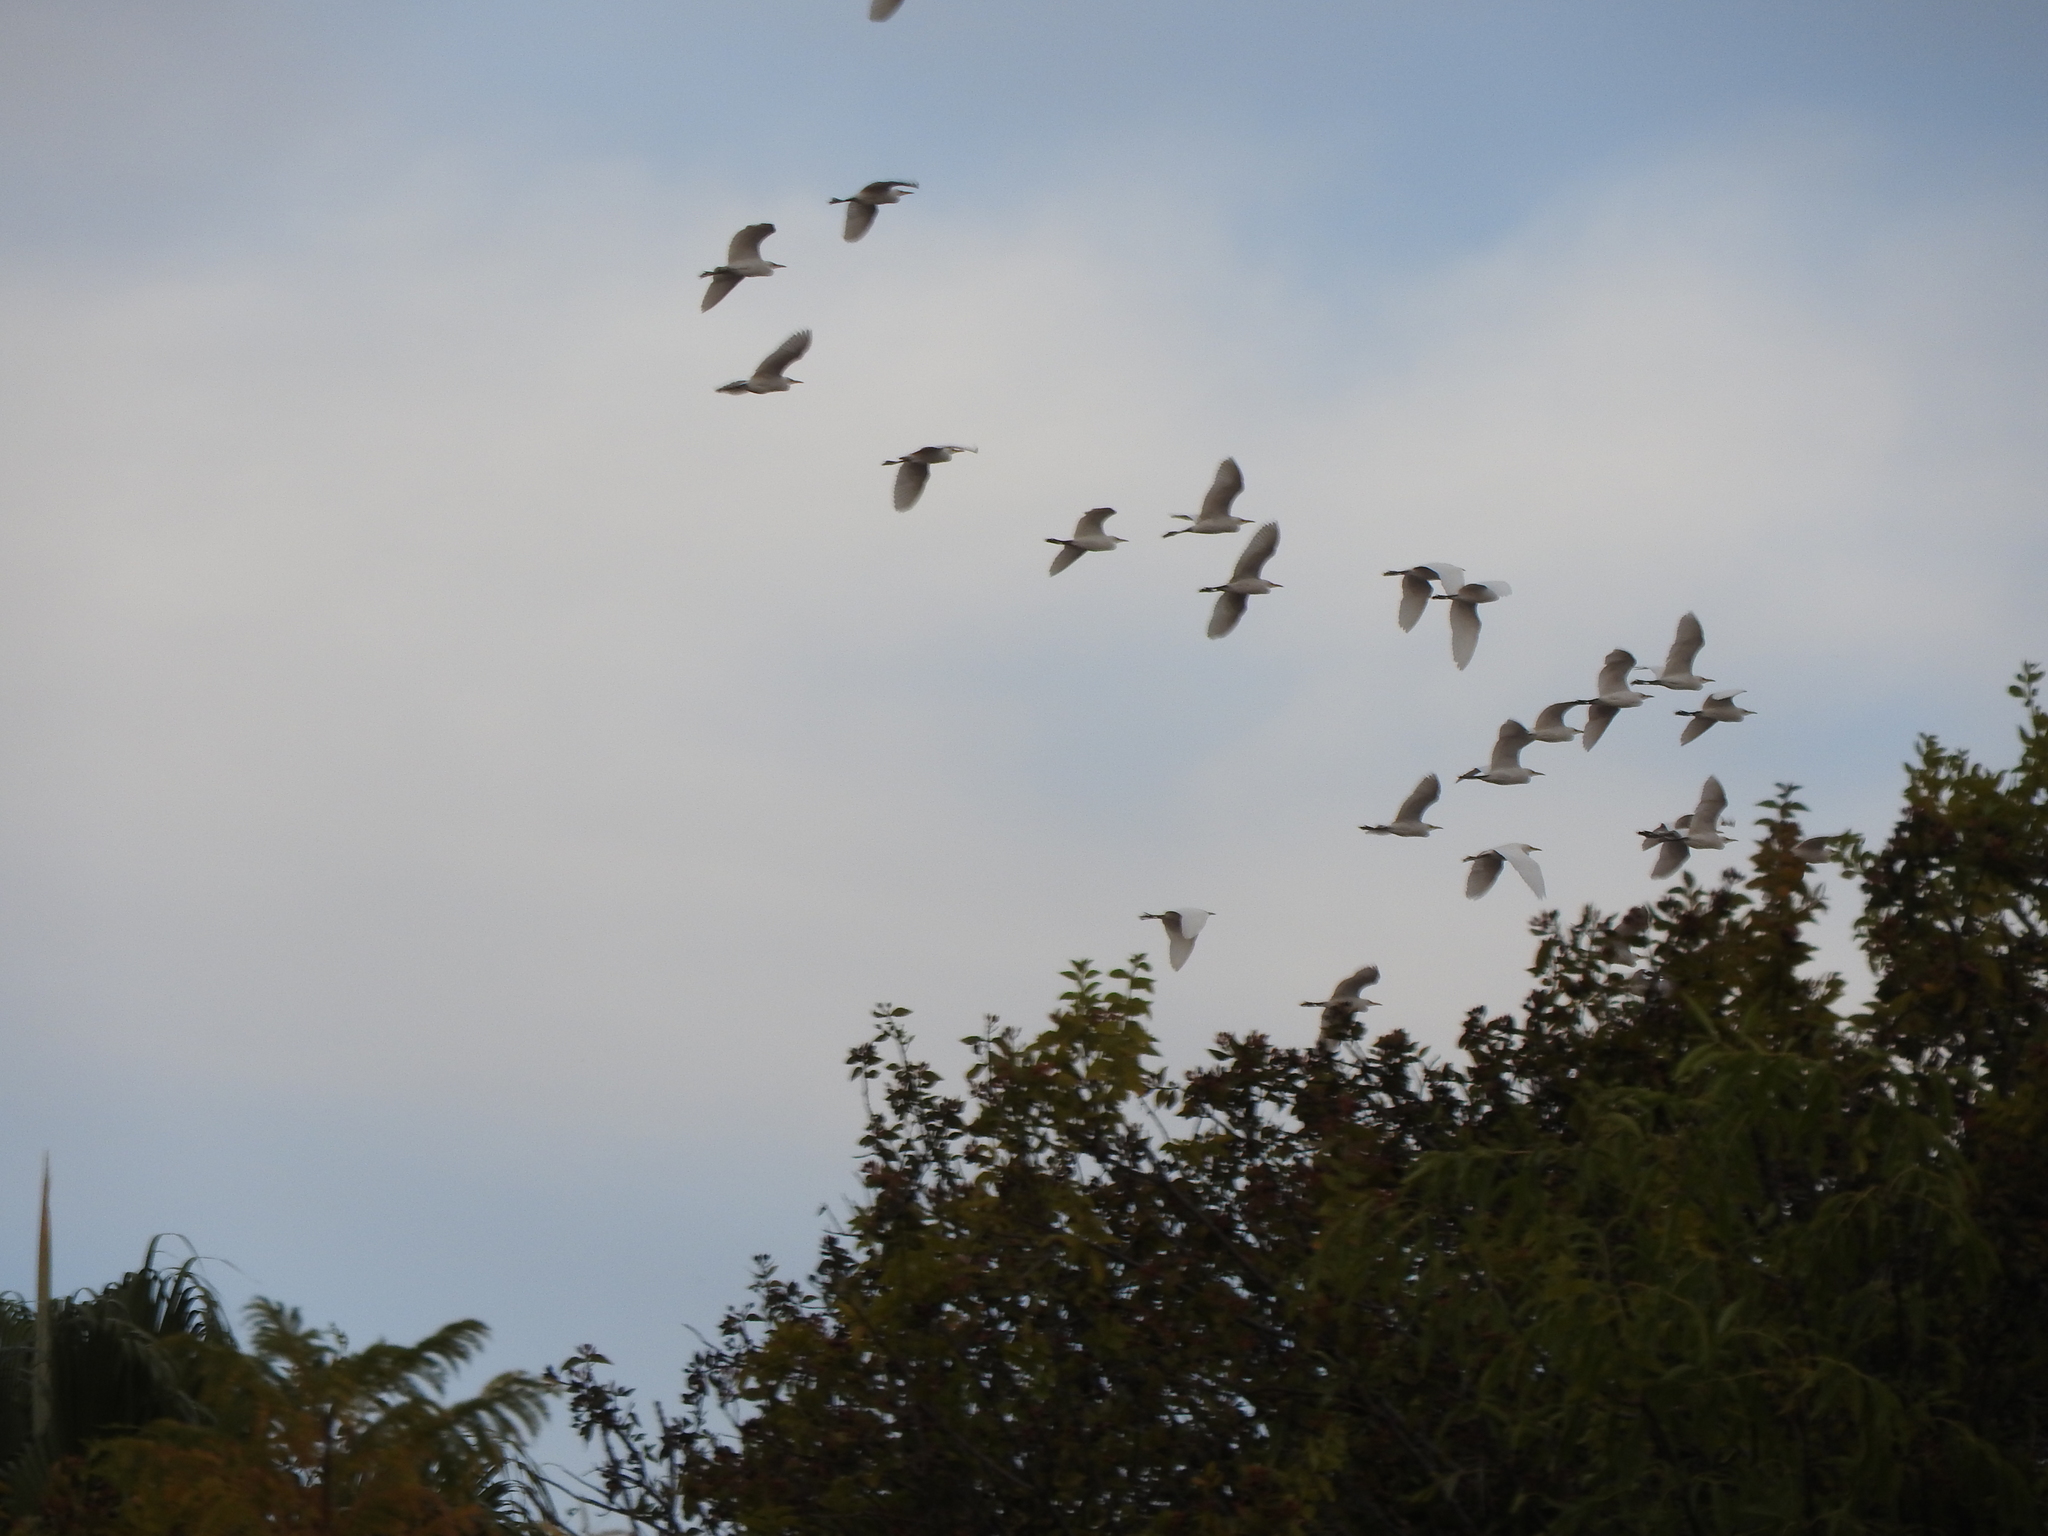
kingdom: Animalia
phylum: Chordata
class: Aves
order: Pelecaniformes
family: Ardeidae
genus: Bubulcus
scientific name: Bubulcus ibis
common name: Cattle egret
